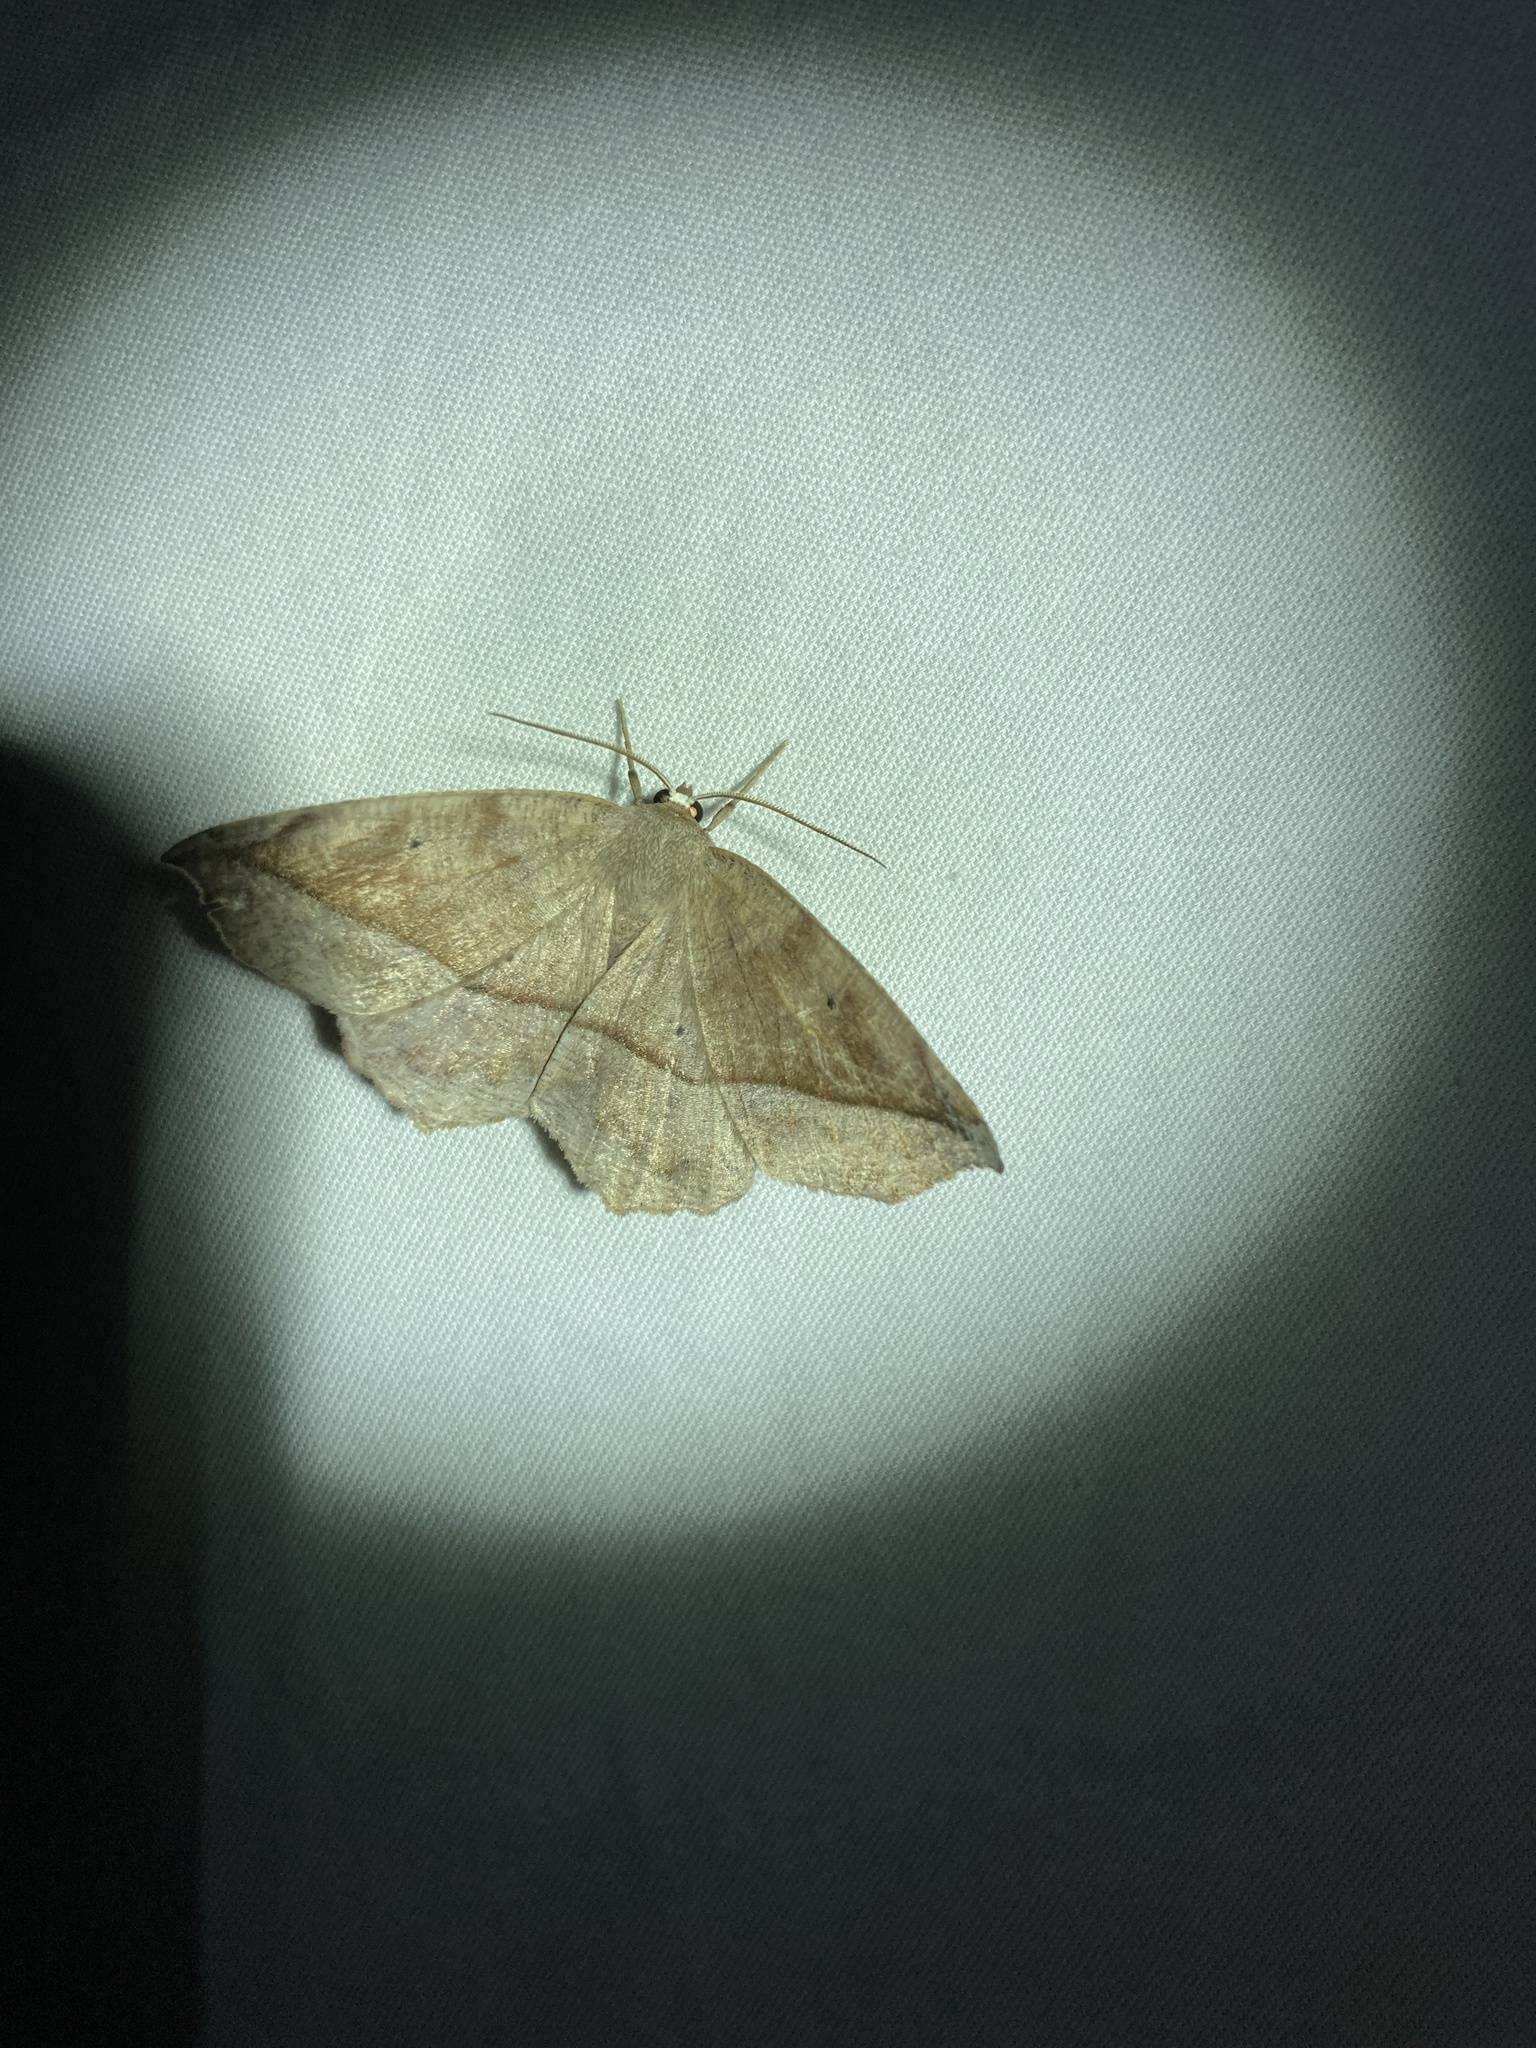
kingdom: Animalia
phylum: Arthropoda
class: Insecta
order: Lepidoptera
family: Geometridae
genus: Eutrapela
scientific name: Eutrapela clemataria
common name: Curved-toothed geometer
